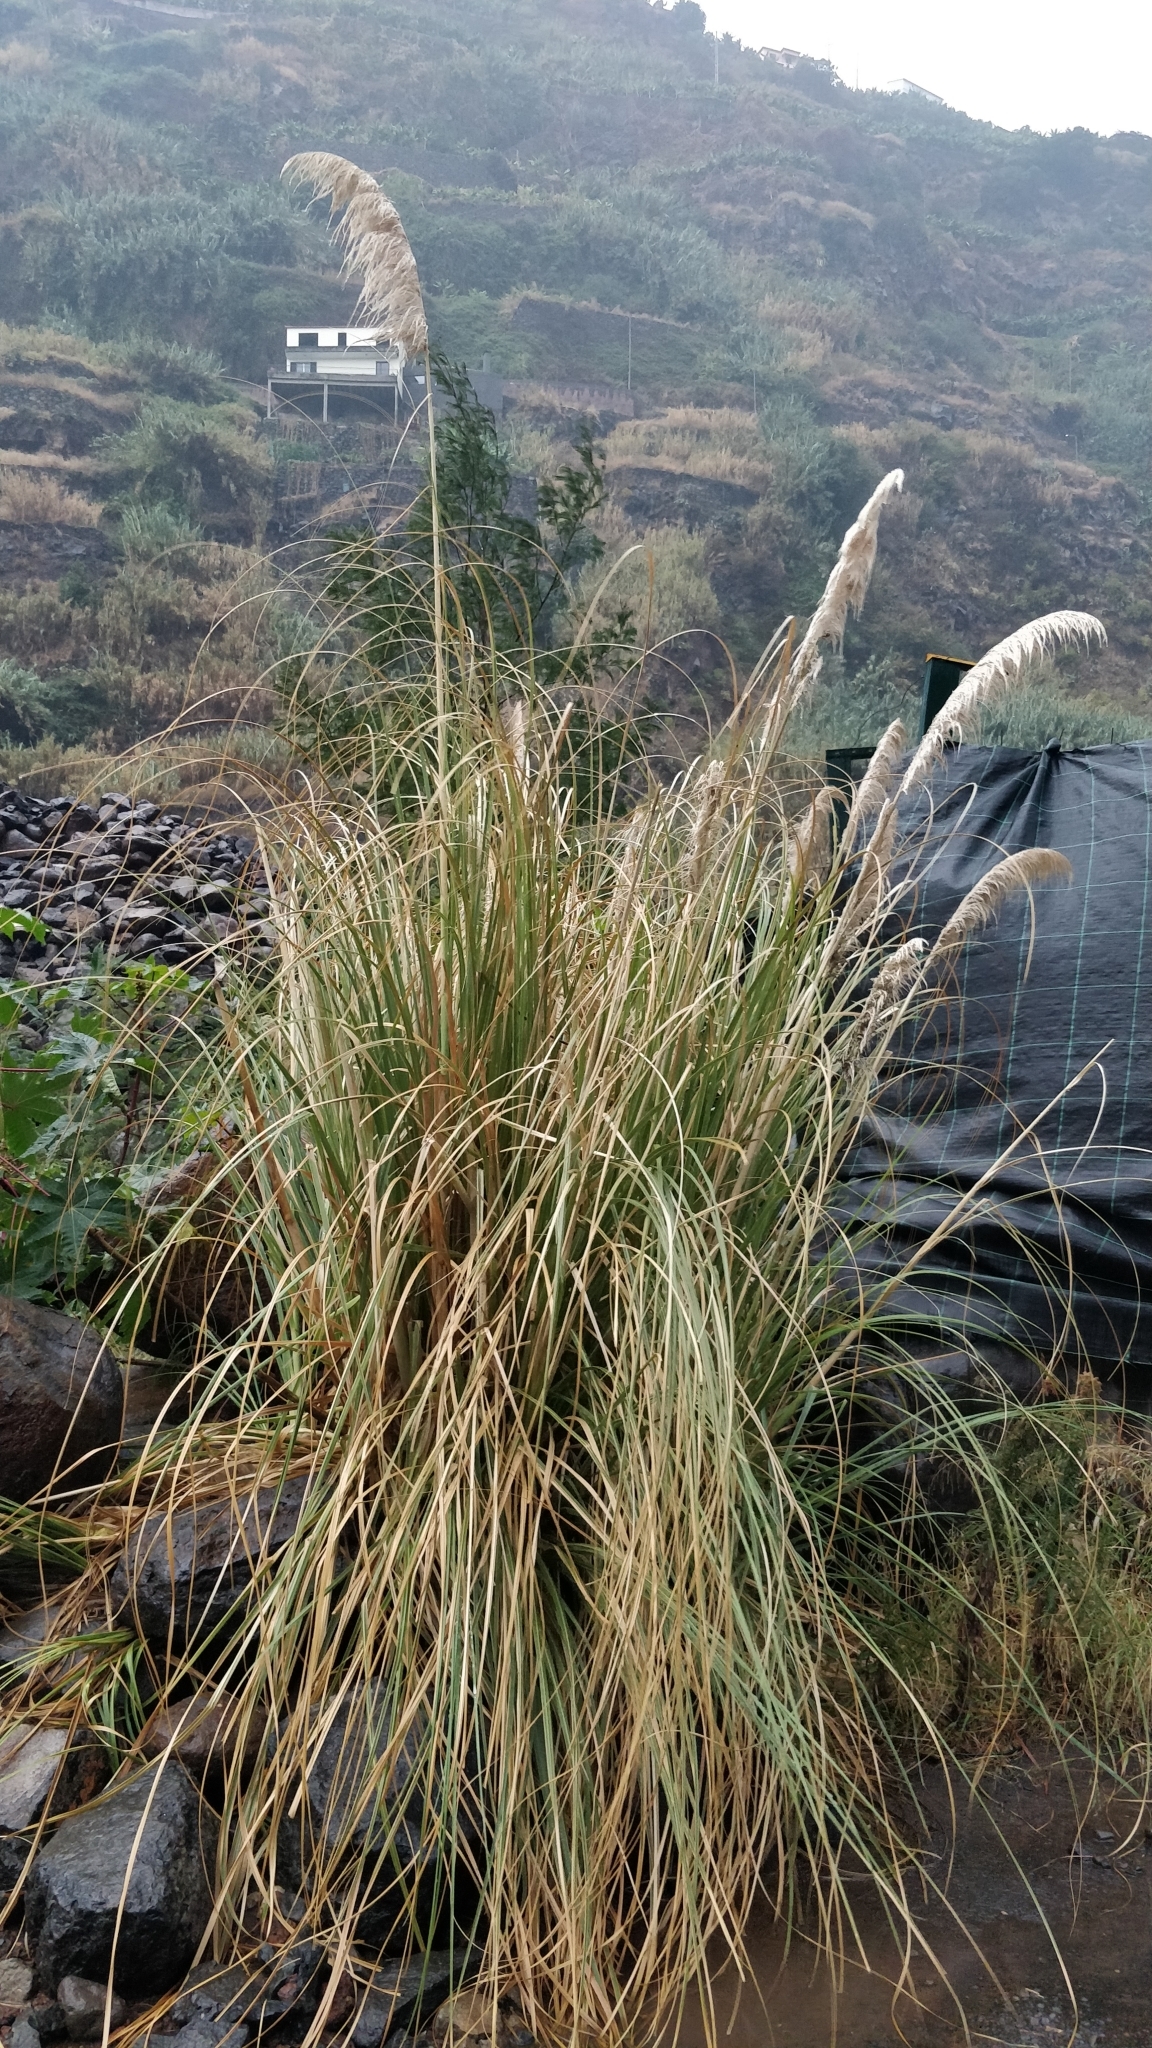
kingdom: Plantae
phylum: Tracheophyta
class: Liliopsida
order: Poales
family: Poaceae
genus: Cortaderia
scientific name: Cortaderia selloana
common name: Uruguayan pampas grass
